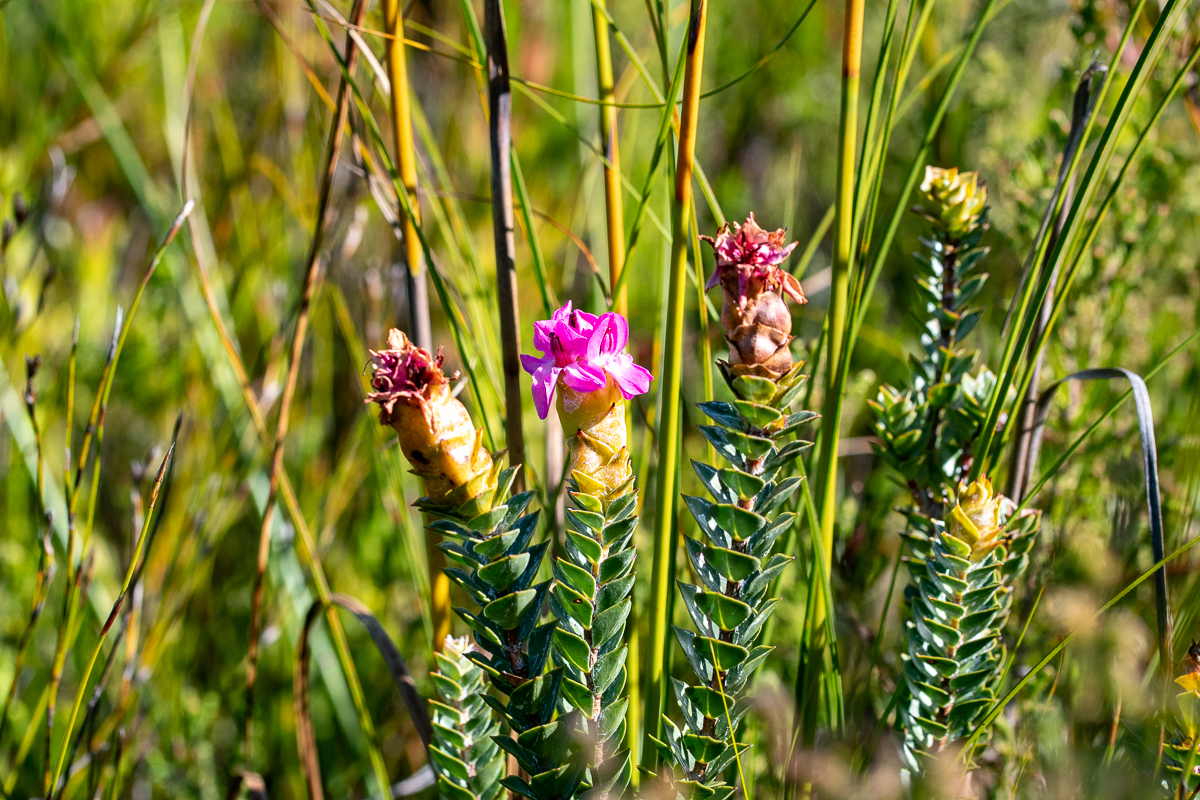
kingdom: Plantae
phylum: Tracheophyta
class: Magnoliopsida
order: Myrtales
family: Penaeaceae
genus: Saltera
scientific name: Saltera sarcocolla
